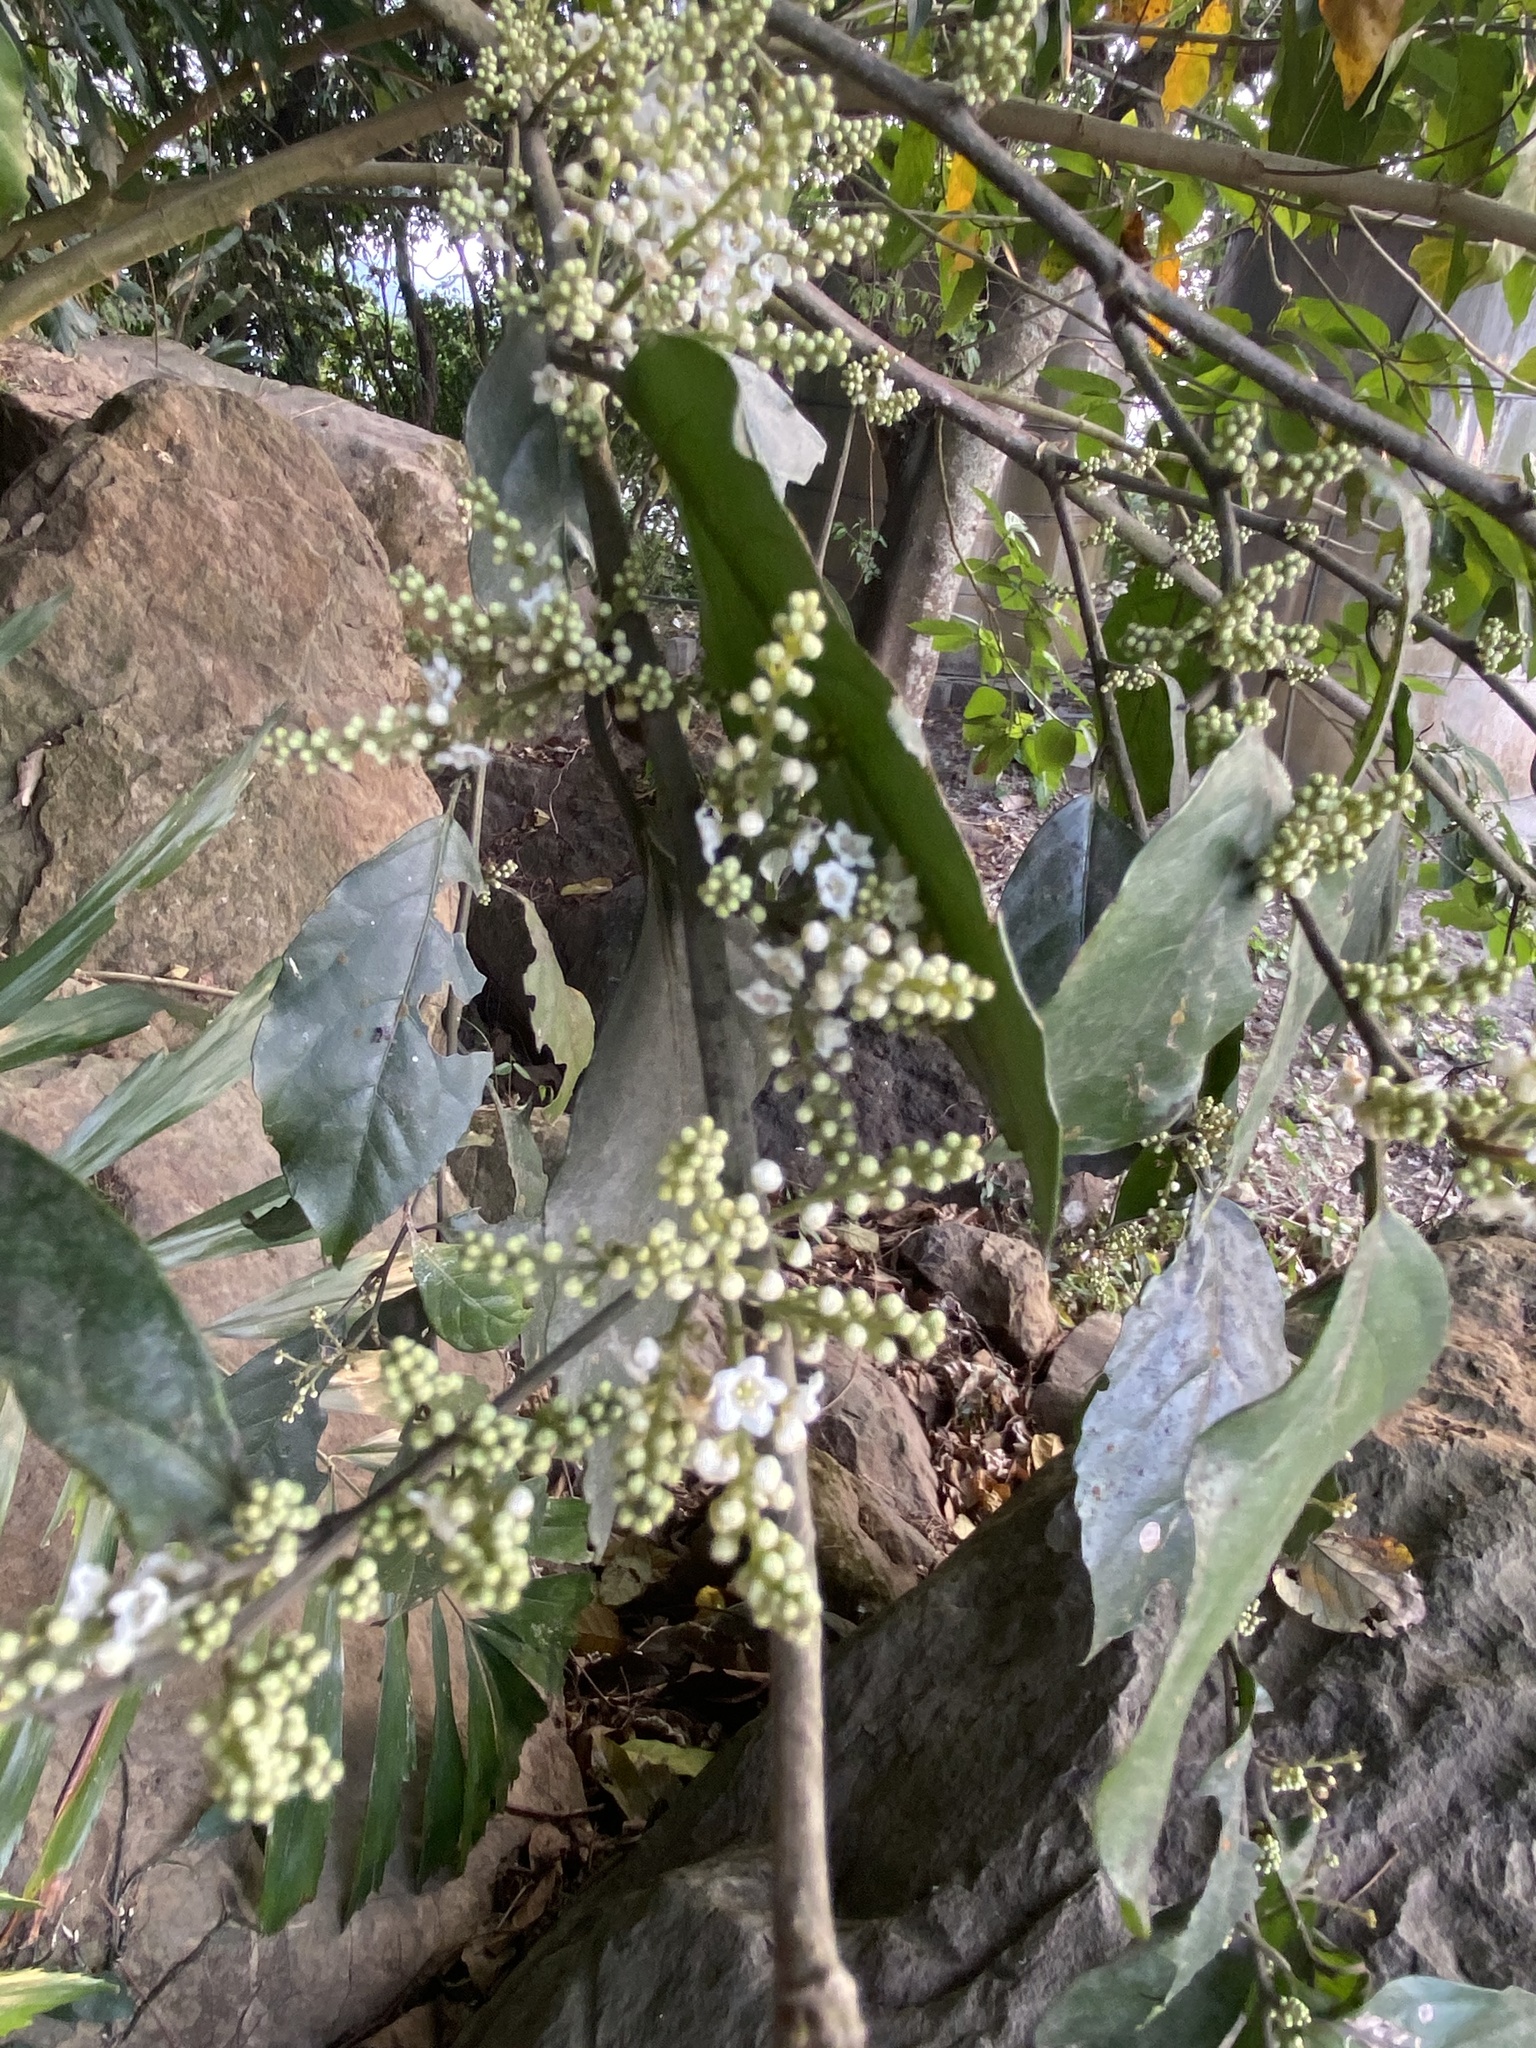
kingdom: Plantae
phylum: Tracheophyta
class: Magnoliopsida
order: Ericales
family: Primulaceae
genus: Maesa
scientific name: Maesa perlaria
